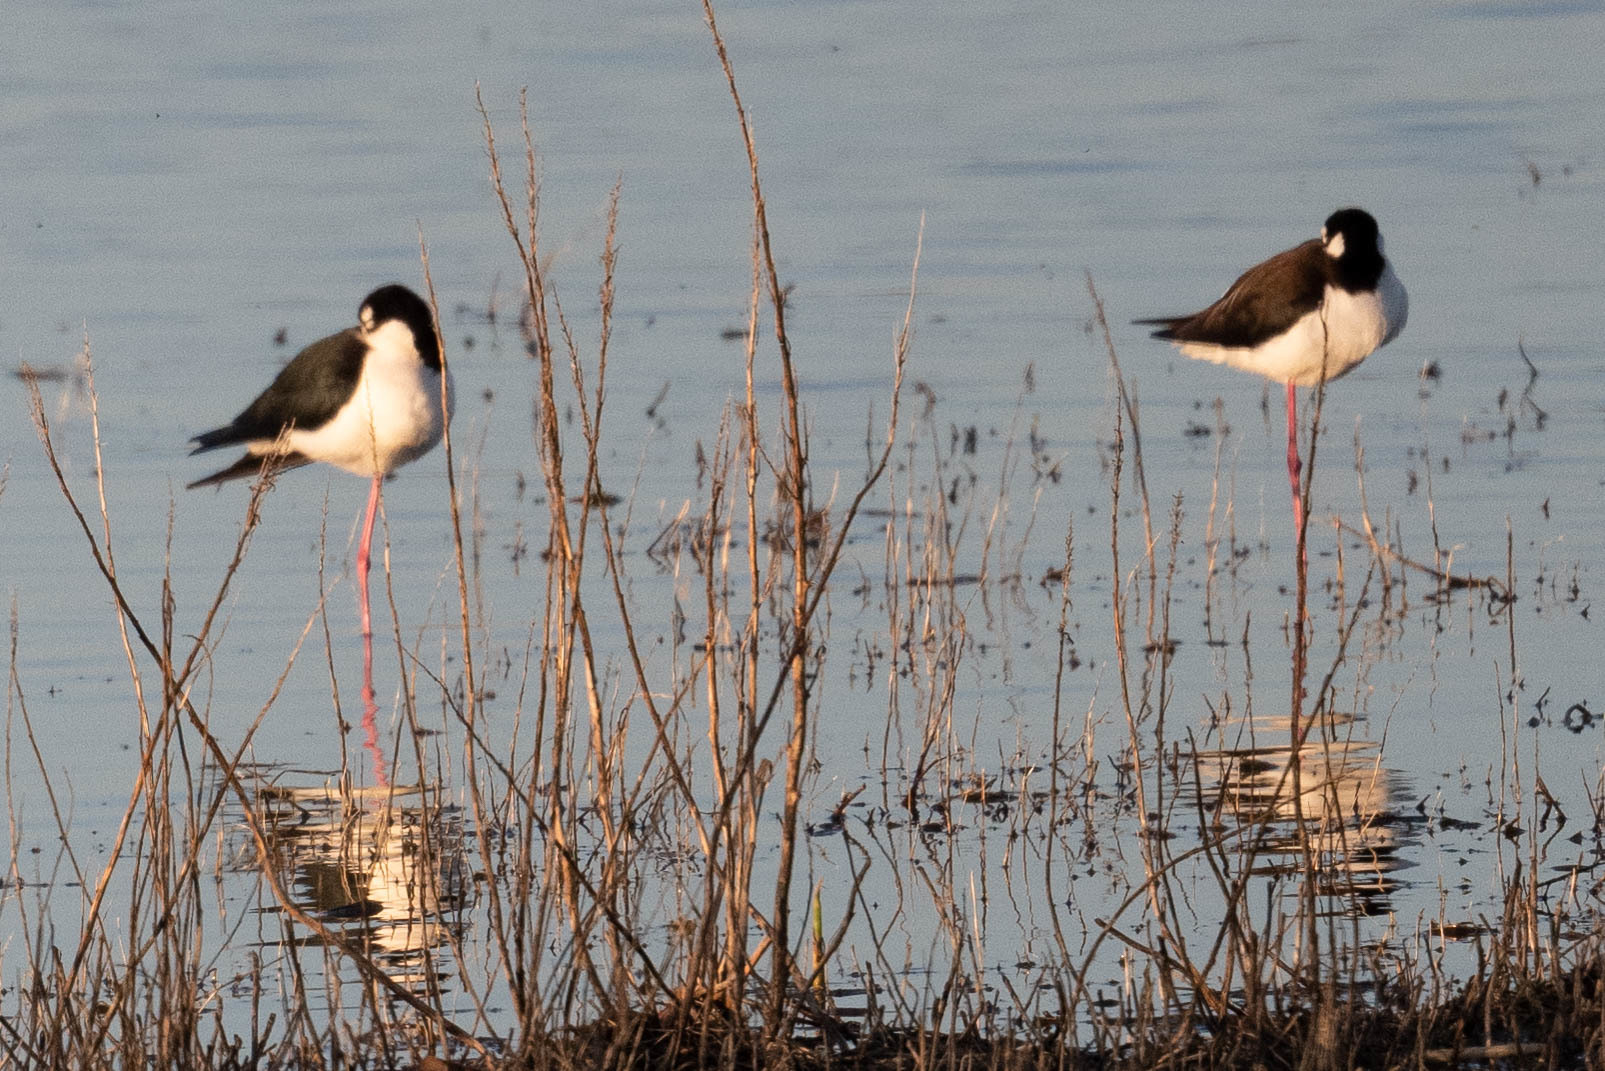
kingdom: Animalia
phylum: Chordata
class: Aves
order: Charadriiformes
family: Recurvirostridae
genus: Himantopus
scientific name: Himantopus mexicanus
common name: Black-necked stilt
